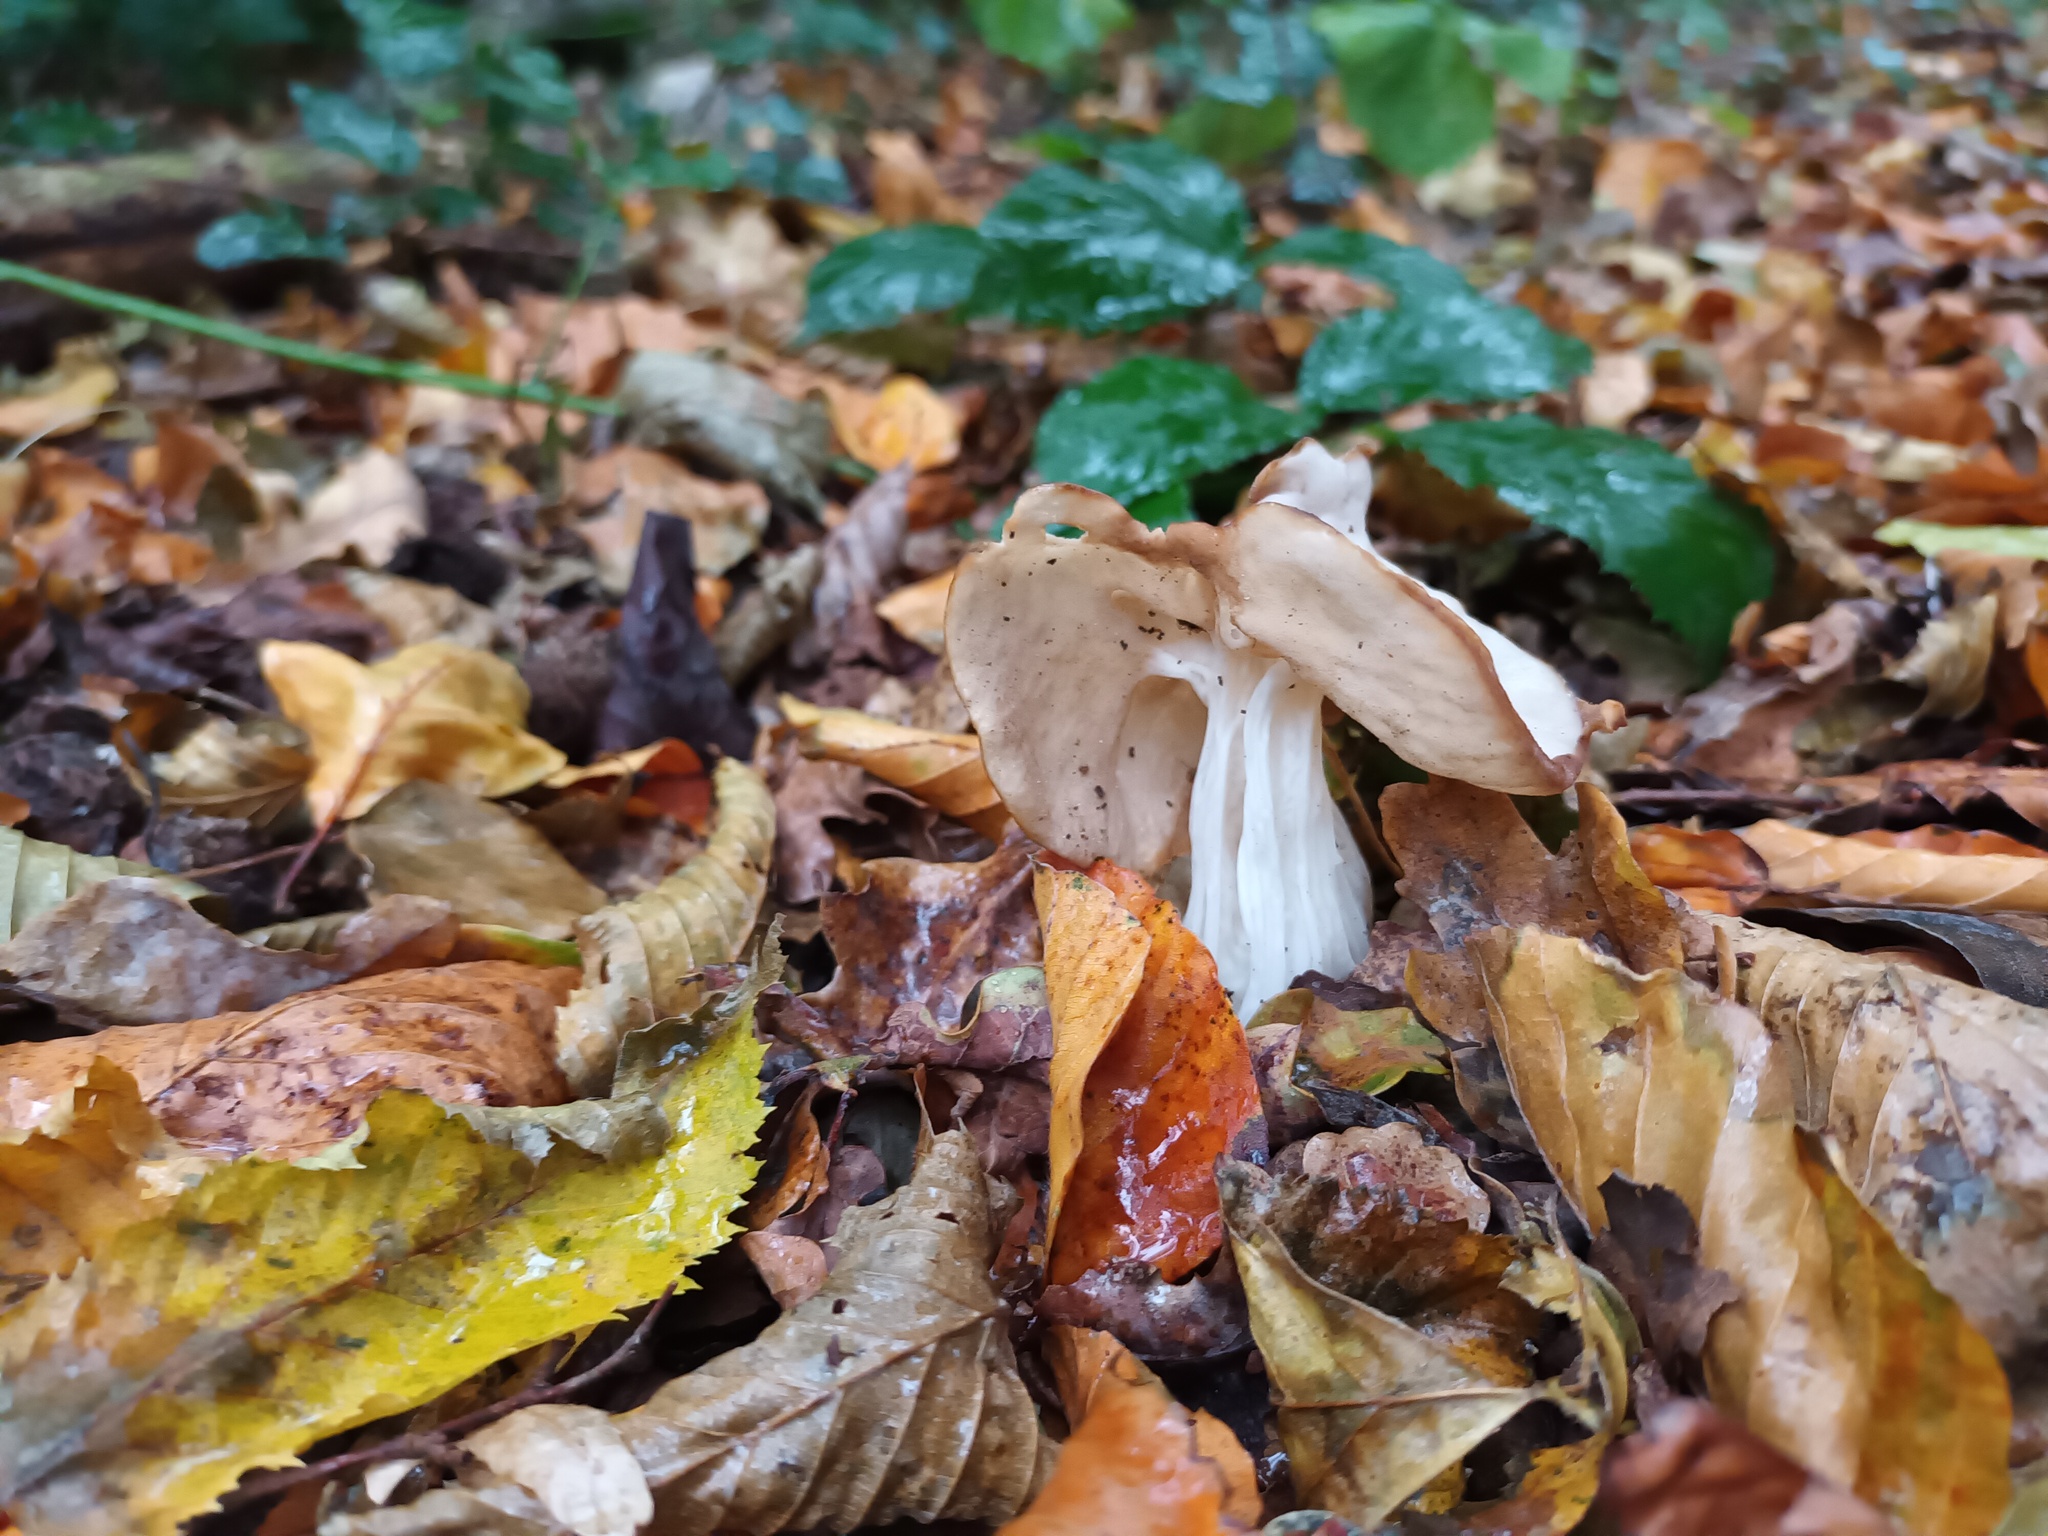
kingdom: Fungi
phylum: Ascomycota
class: Pezizomycetes
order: Pezizales
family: Helvellaceae
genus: Helvella
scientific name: Helvella crispa
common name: White saddle
